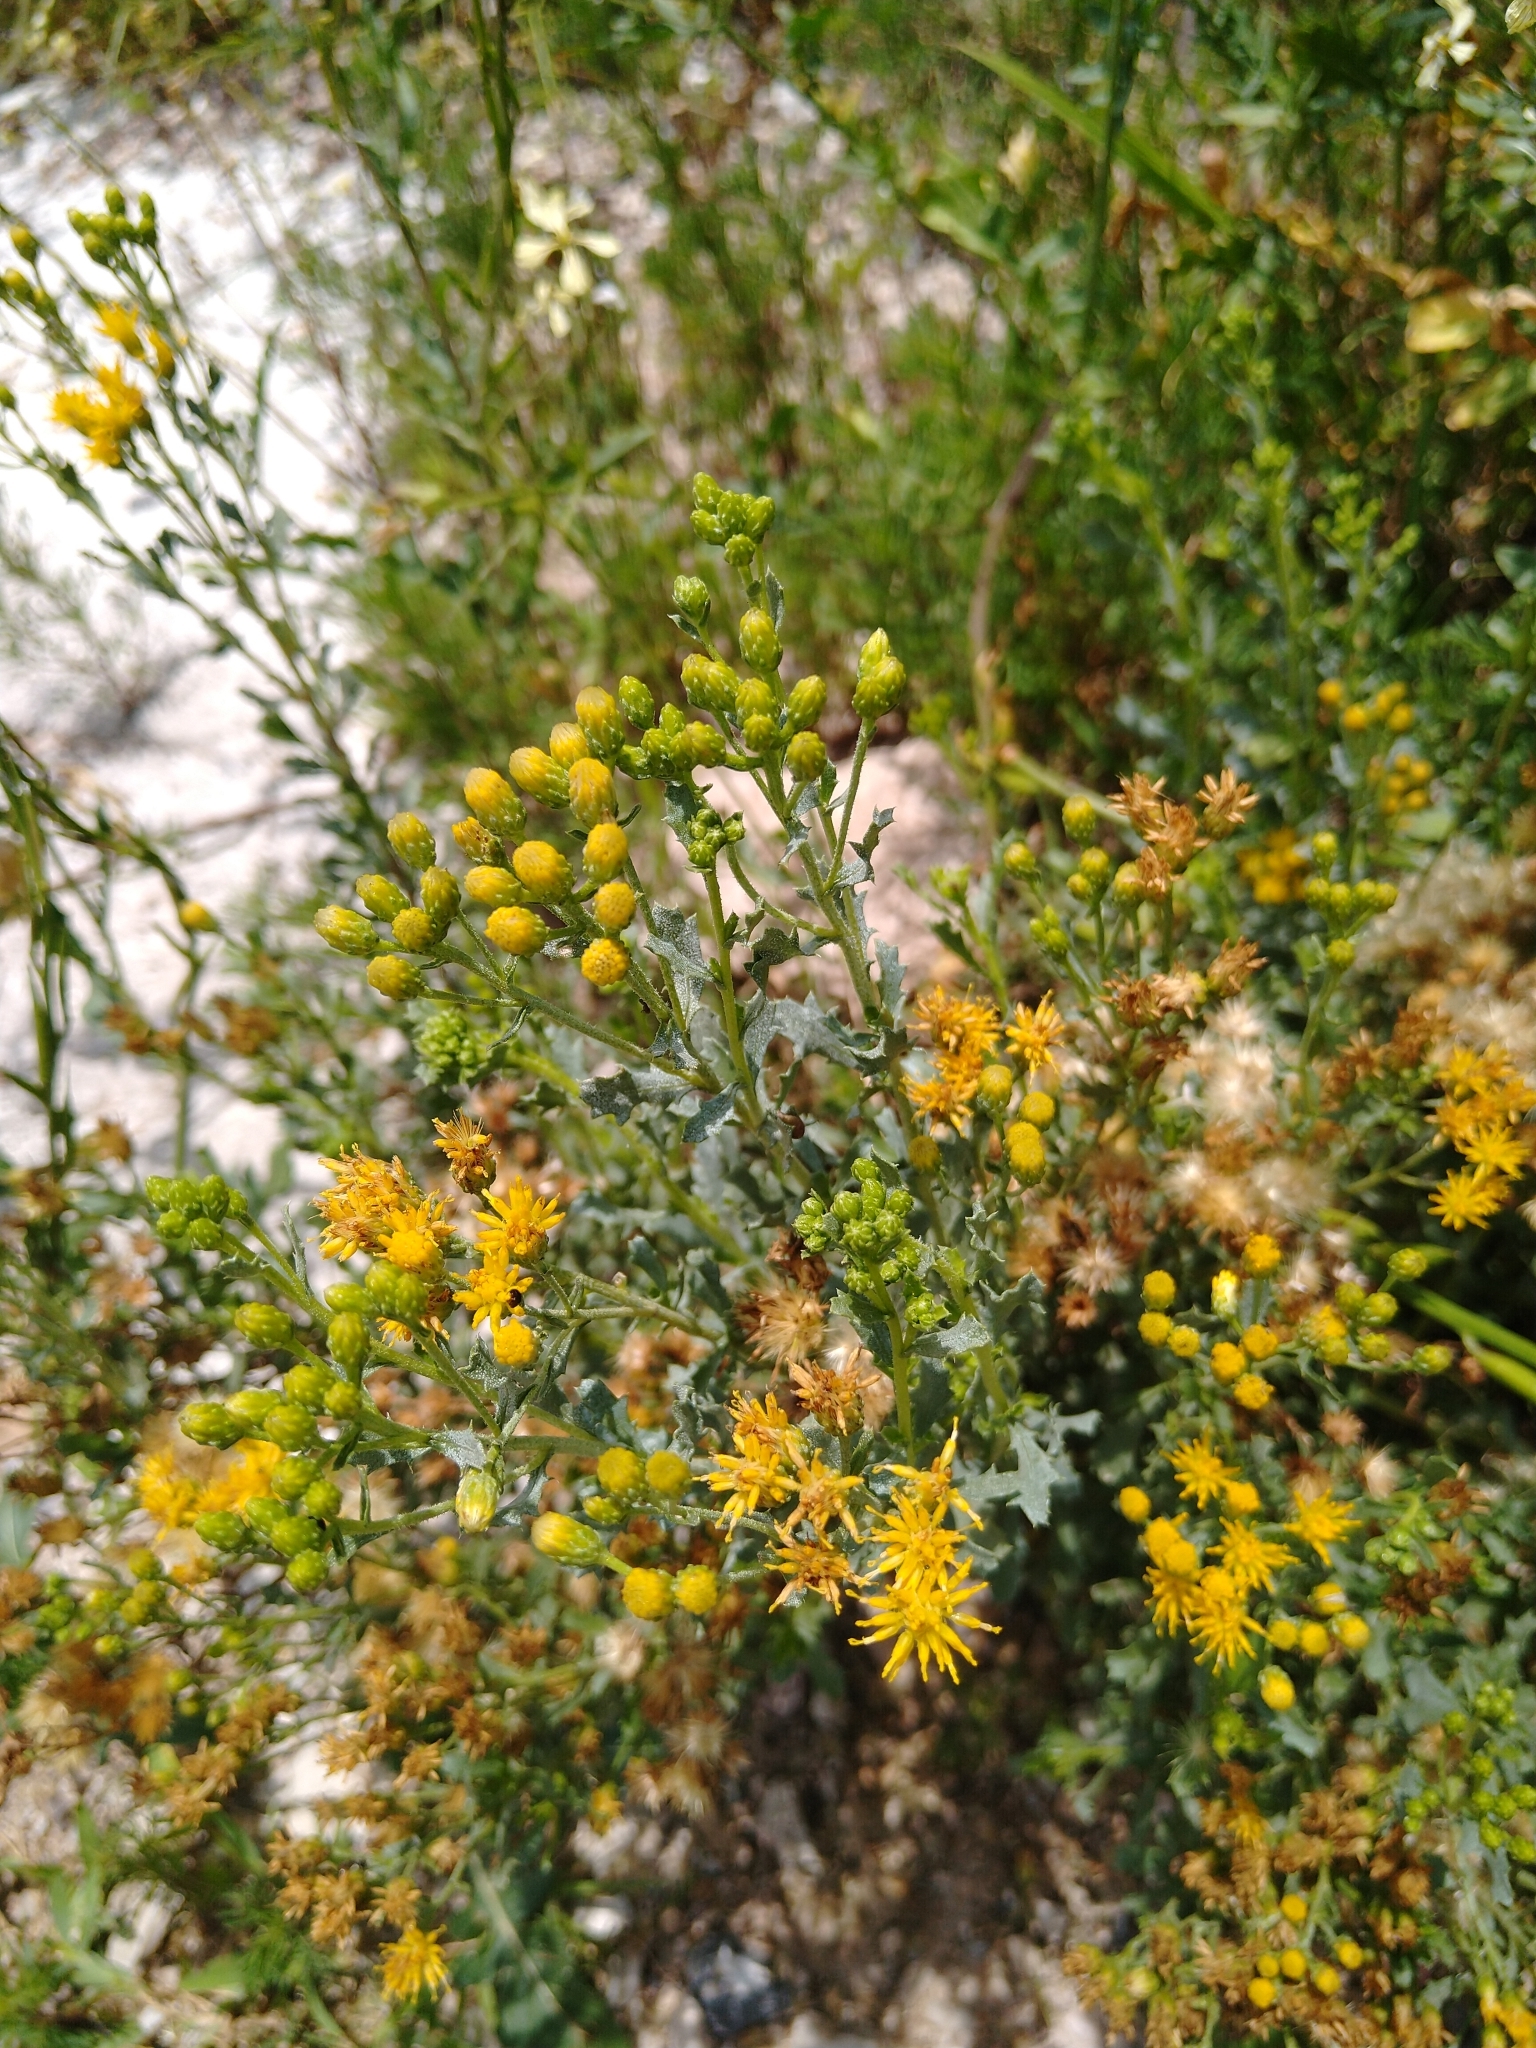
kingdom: Plantae
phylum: Tracheophyta
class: Magnoliopsida
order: Asterales
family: Asteraceae
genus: Isocoma
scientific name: Isocoma veneta
